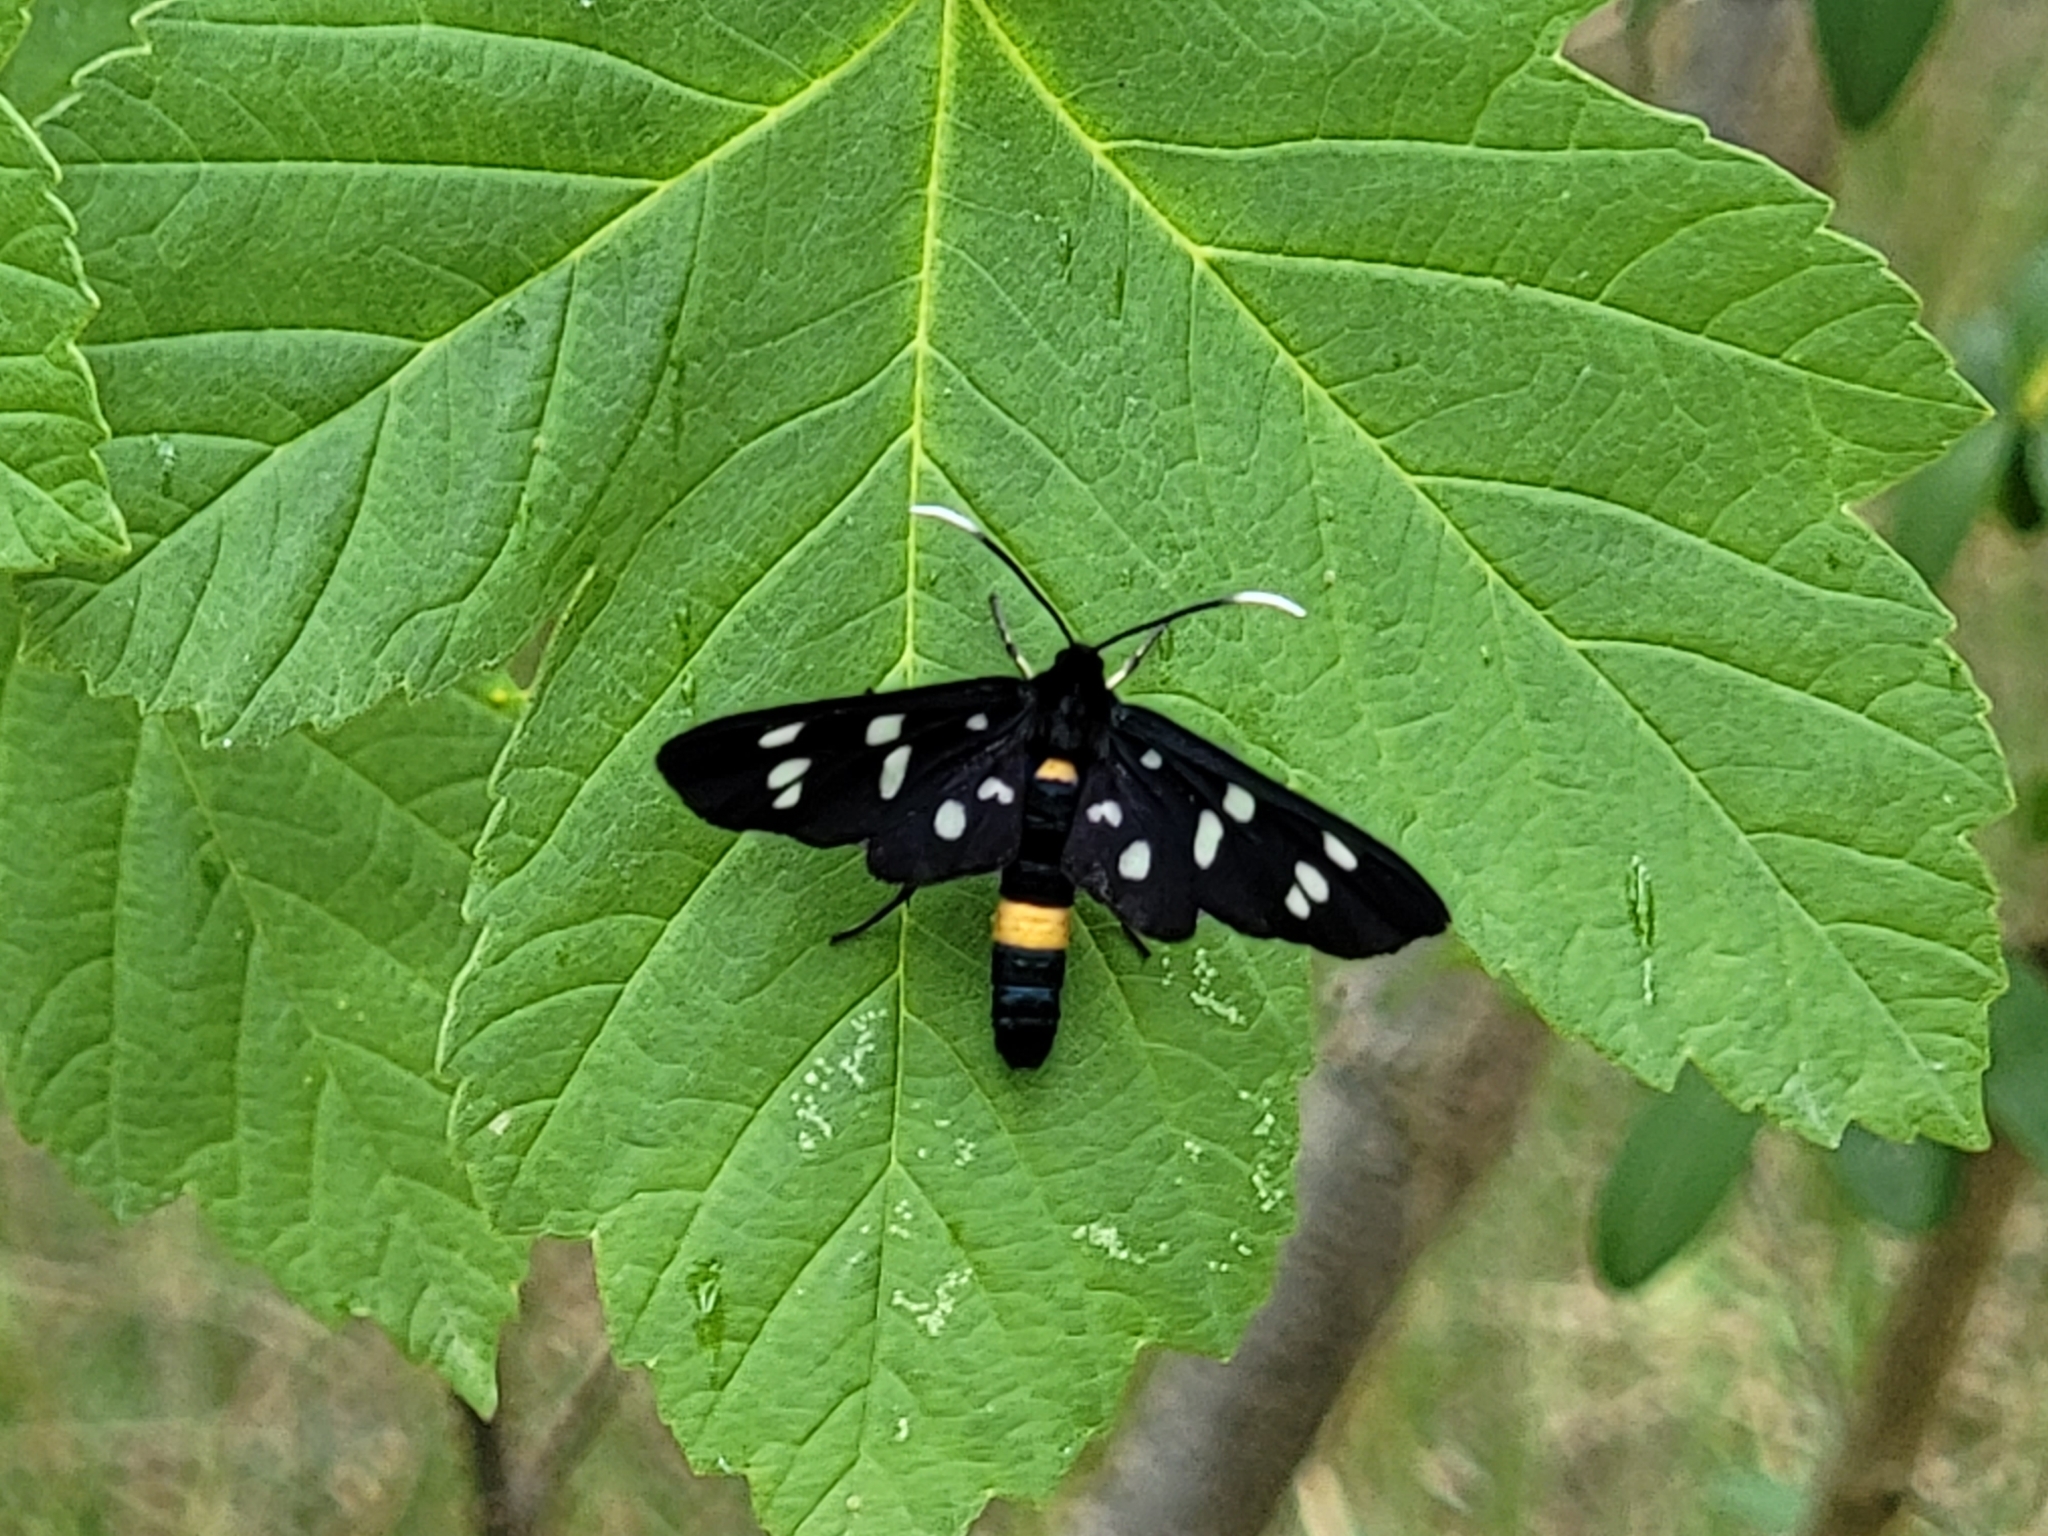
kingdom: Animalia
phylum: Arthropoda
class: Insecta
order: Lepidoptera
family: Erebidae
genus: Amata
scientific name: Amata phegea
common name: Nine-spotted
